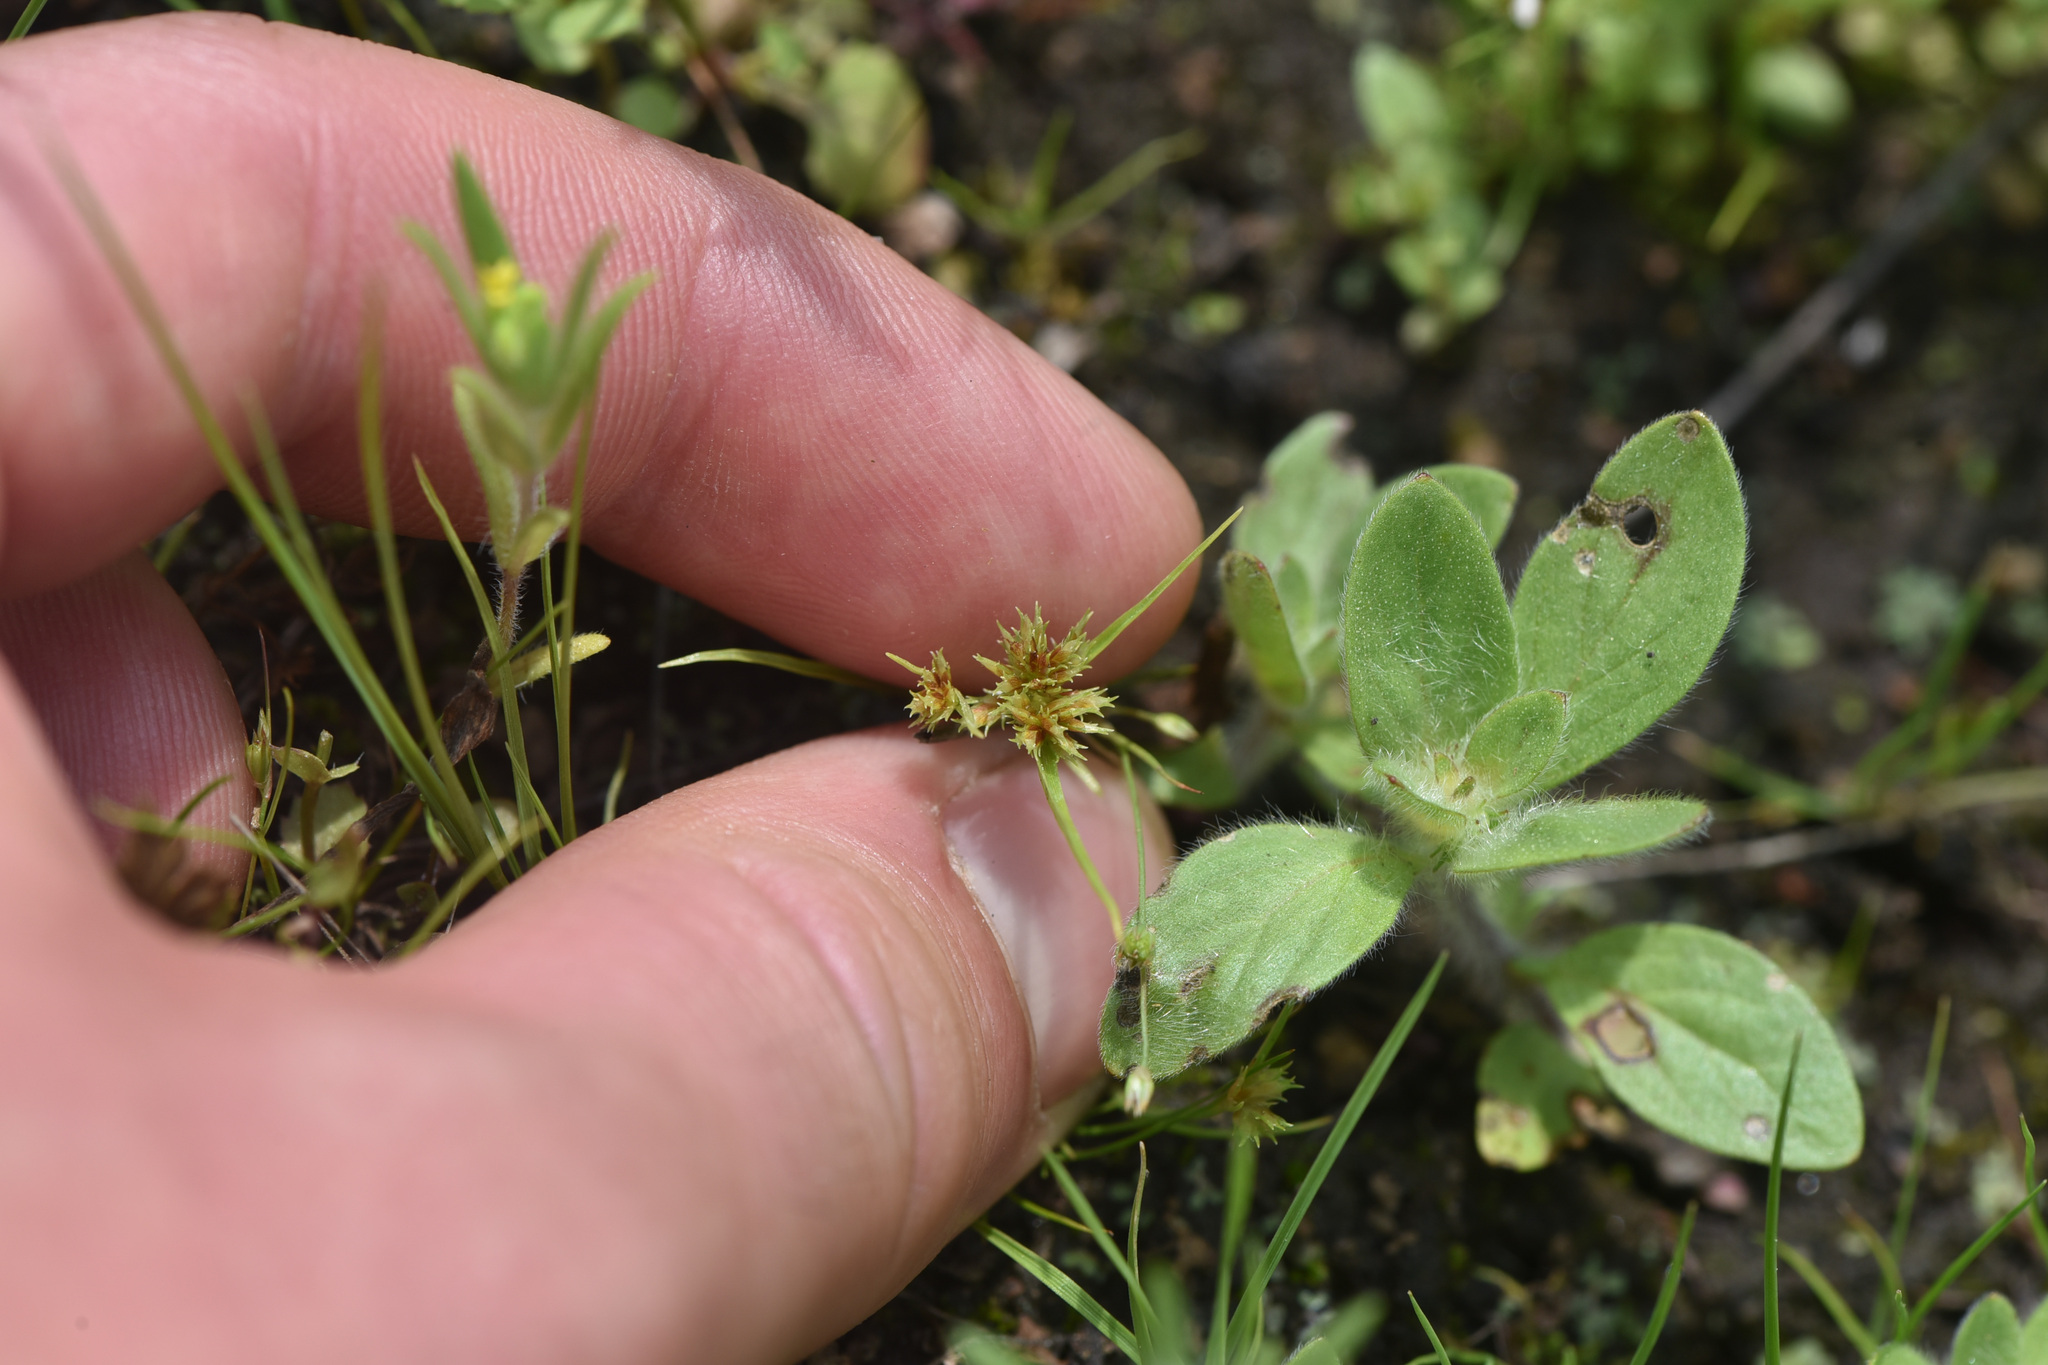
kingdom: Plantae
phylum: Tracheophyta
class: Liliopsida
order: Poales
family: Cyperaceae
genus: Cyperus
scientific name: Cyperus squarrosus
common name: Awned cyperus
